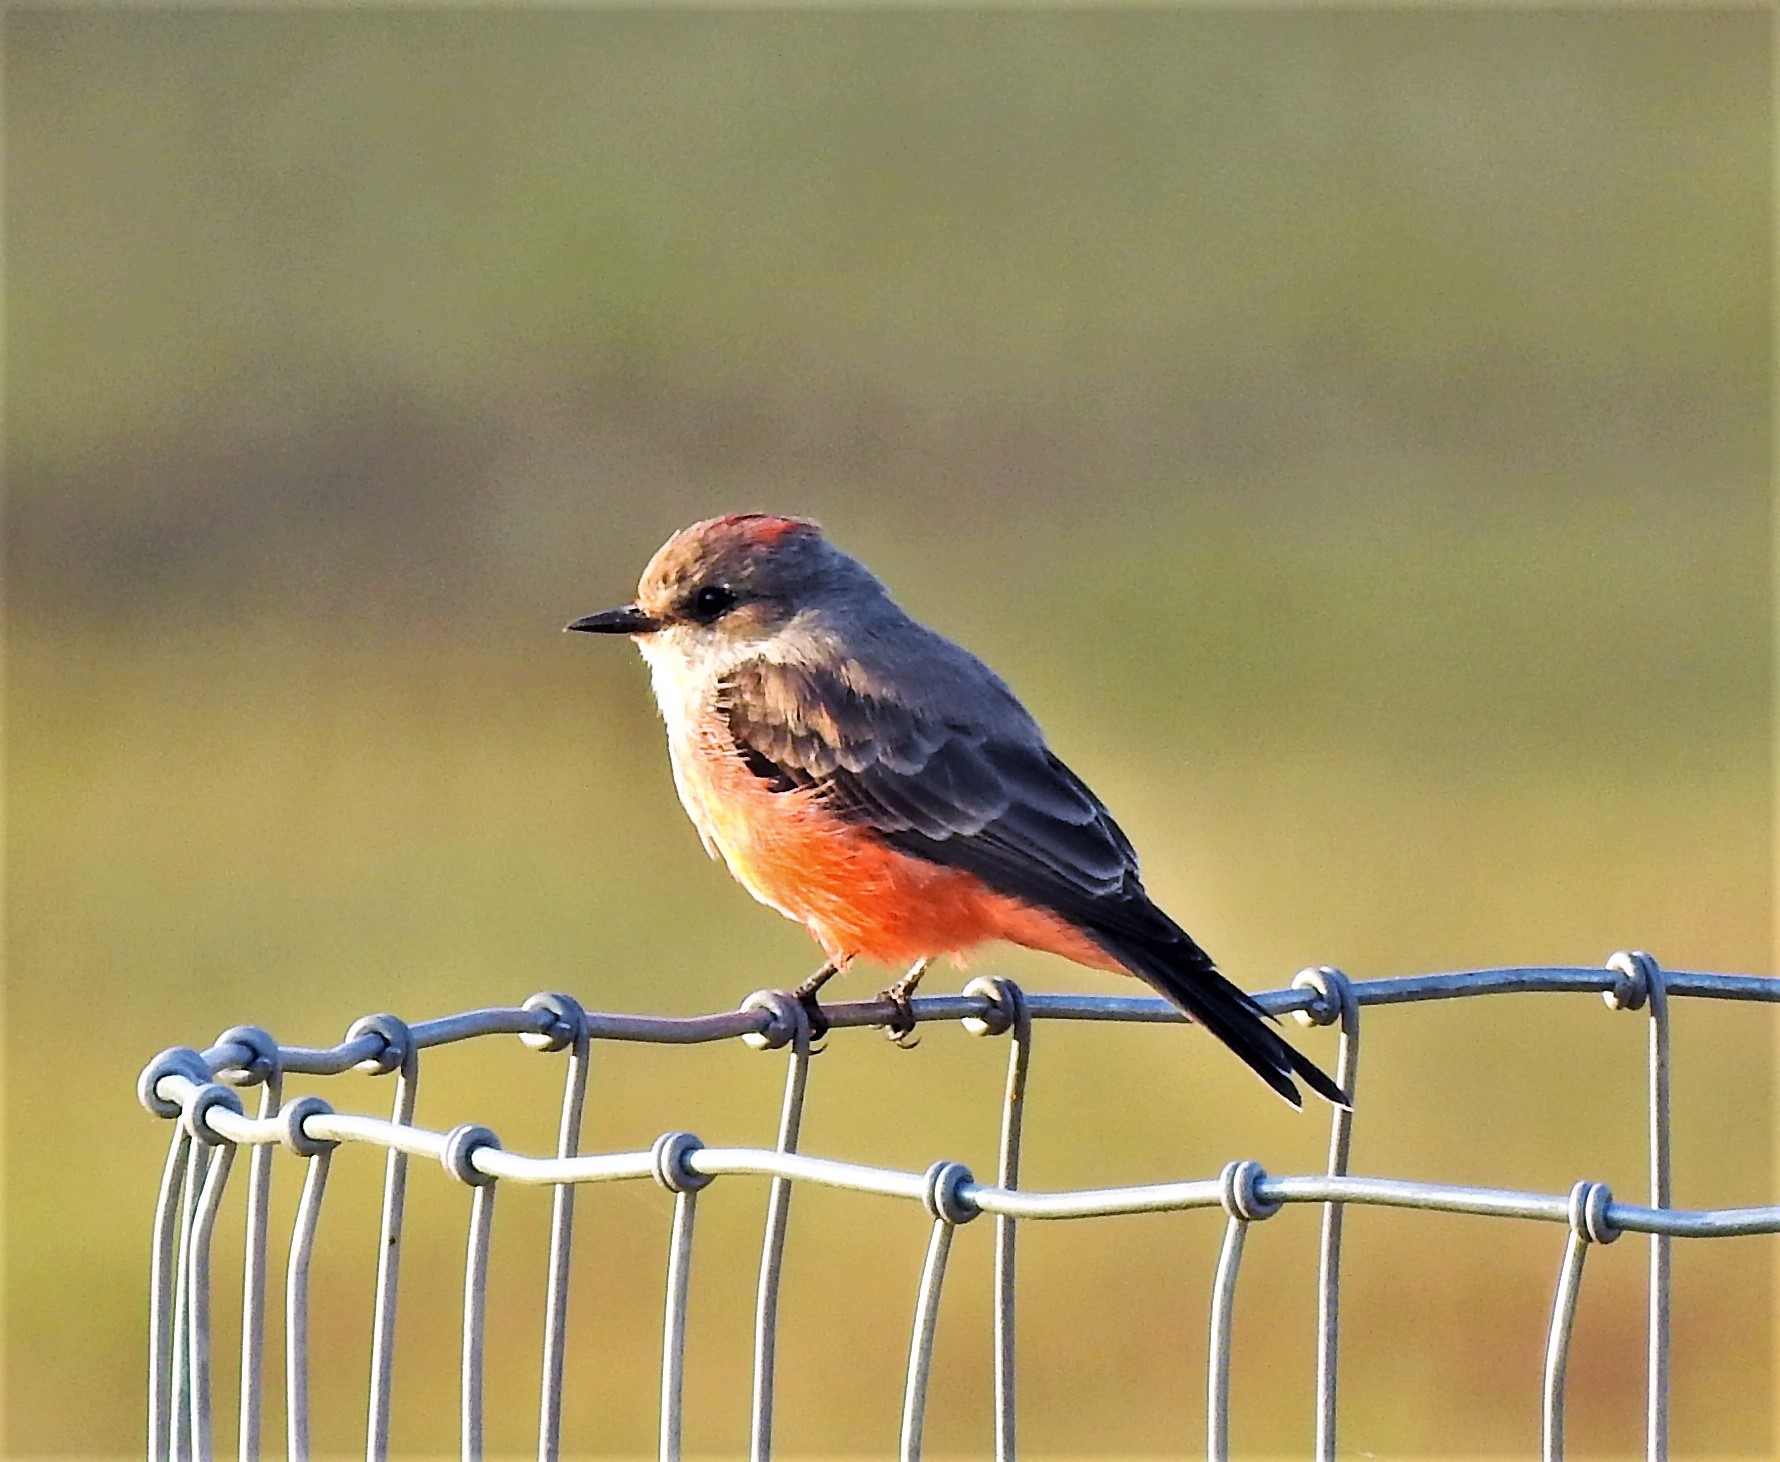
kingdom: Animalia
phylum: Chordata
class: Aves
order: Passeriformes
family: Tyrannidae
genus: Pyrocephalus
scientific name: Pyrocephalus rubinus
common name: Vermilion flycatcher
